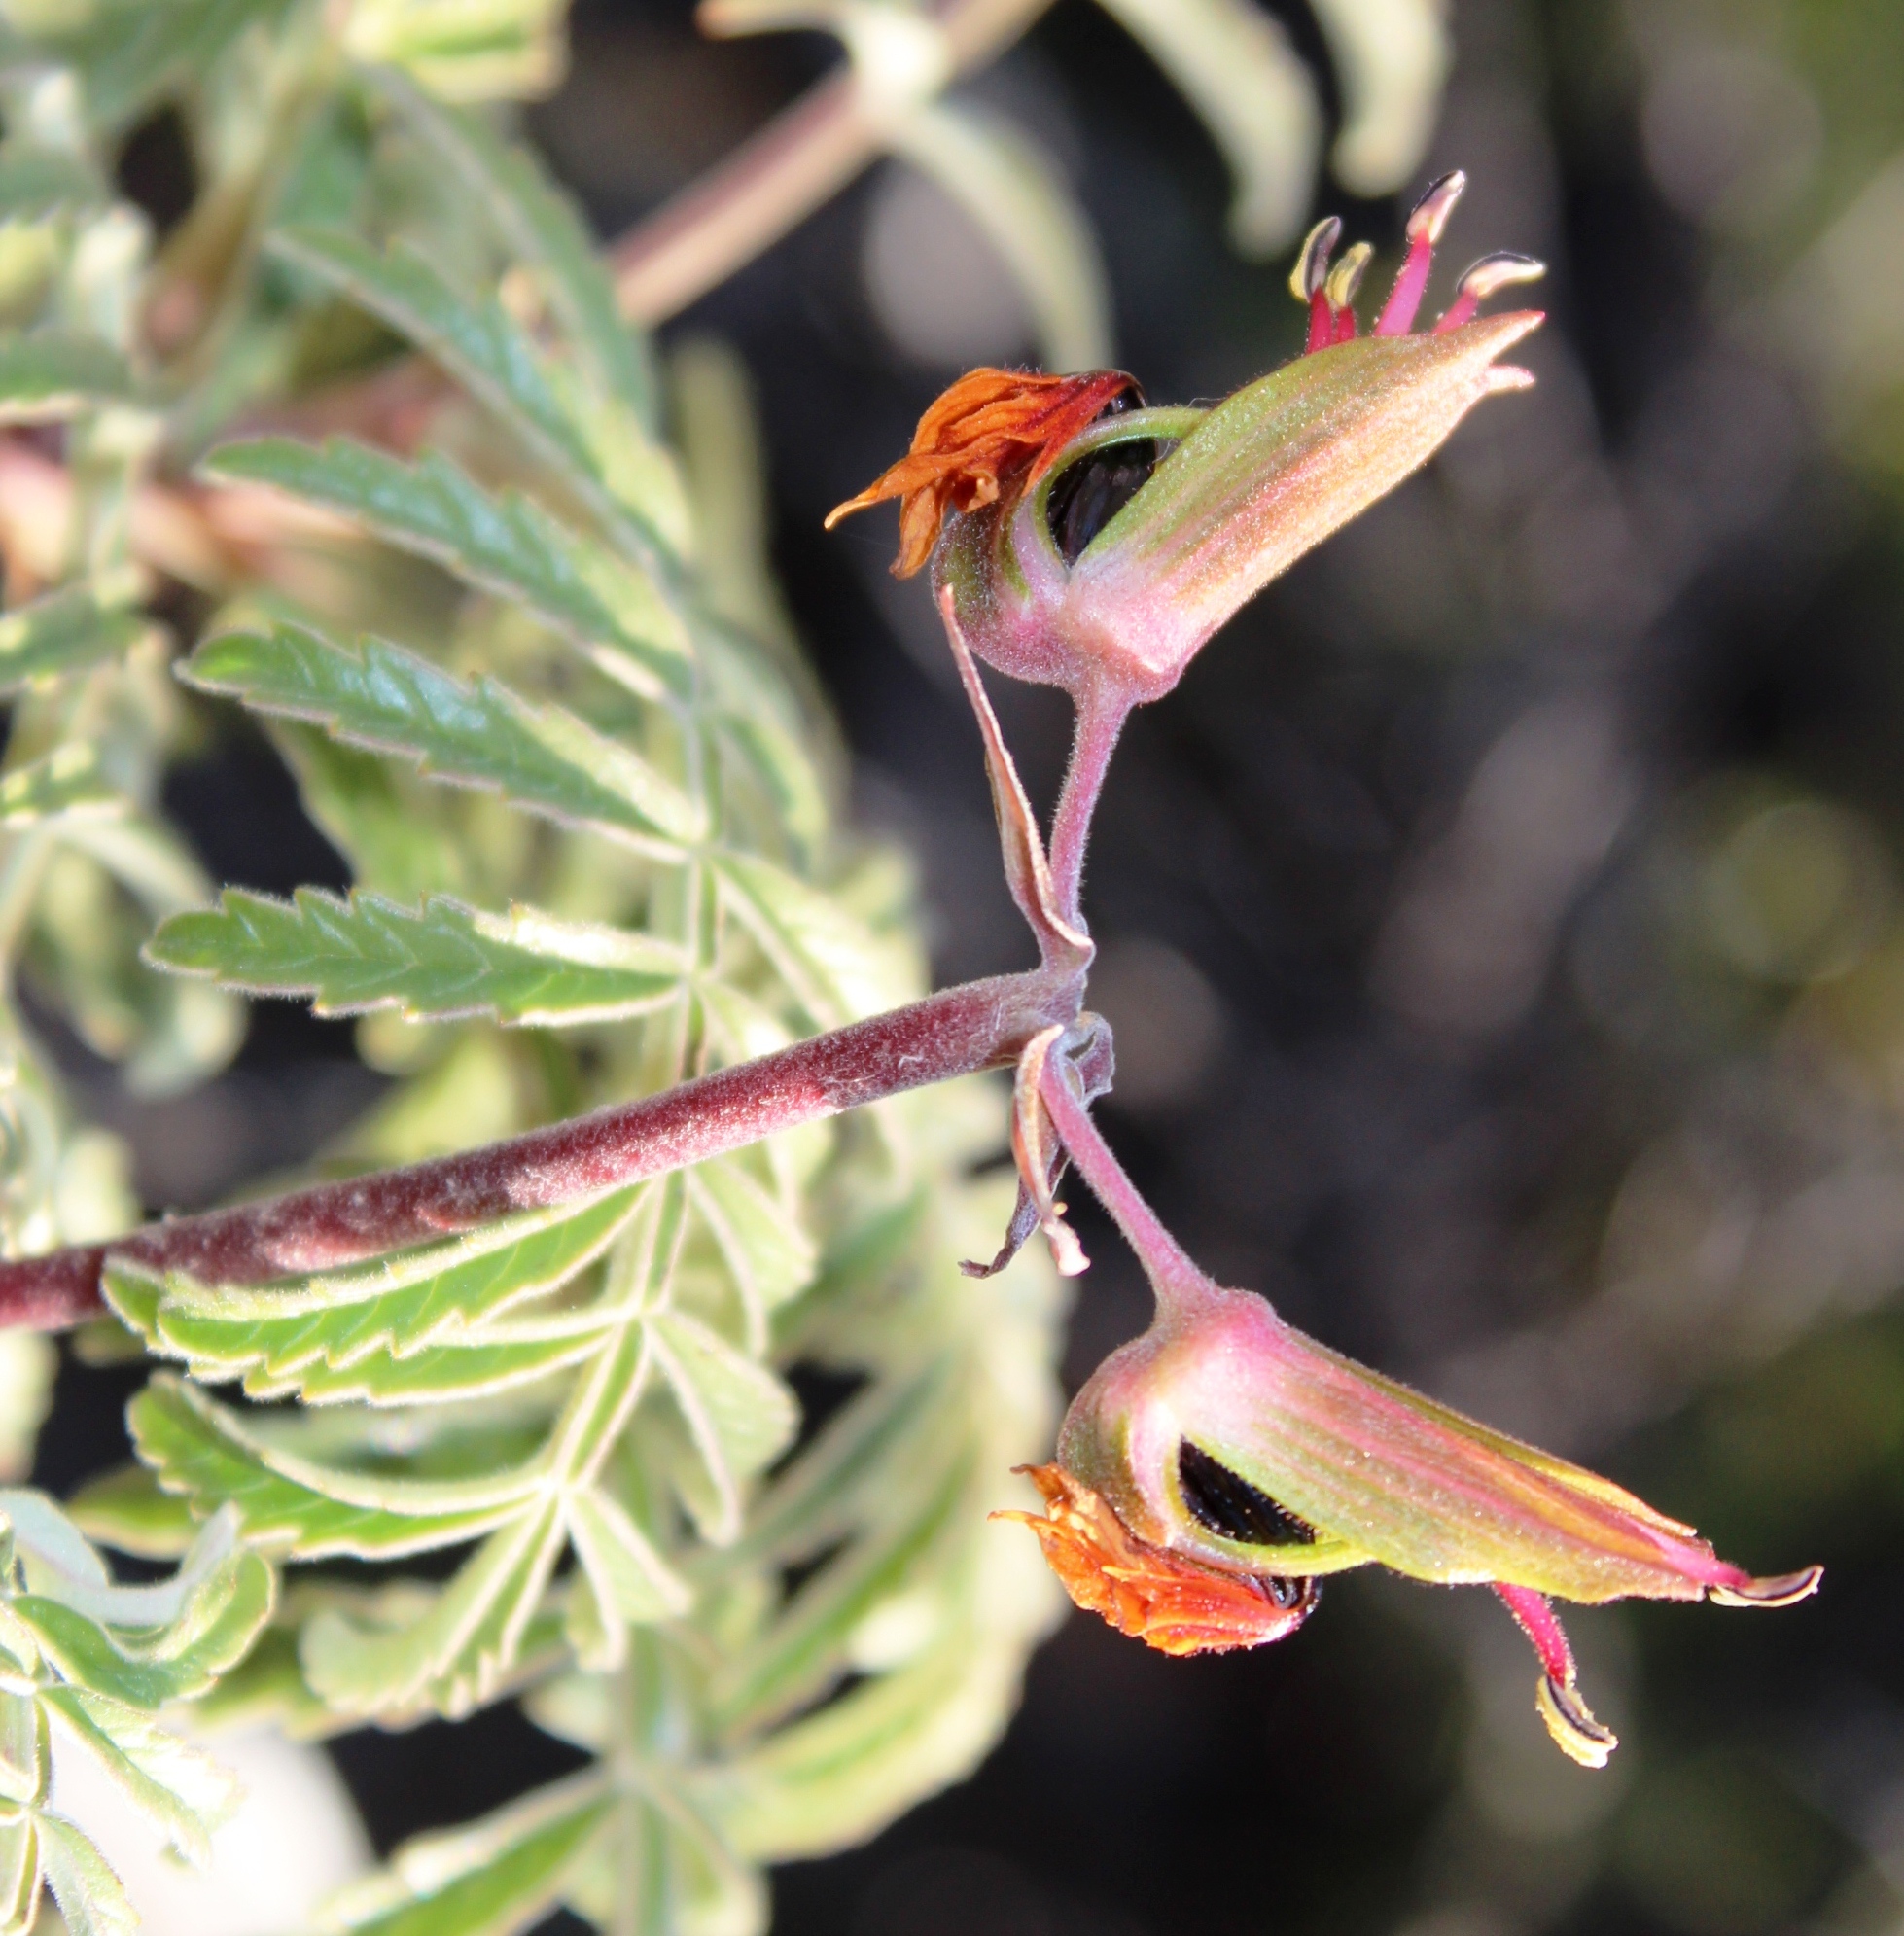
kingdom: Plantae
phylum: Tracheophyta
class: Magnoliopsida
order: Geraniales
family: Melianthaceae
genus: Melianthus
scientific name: Melianthus pectinatus
